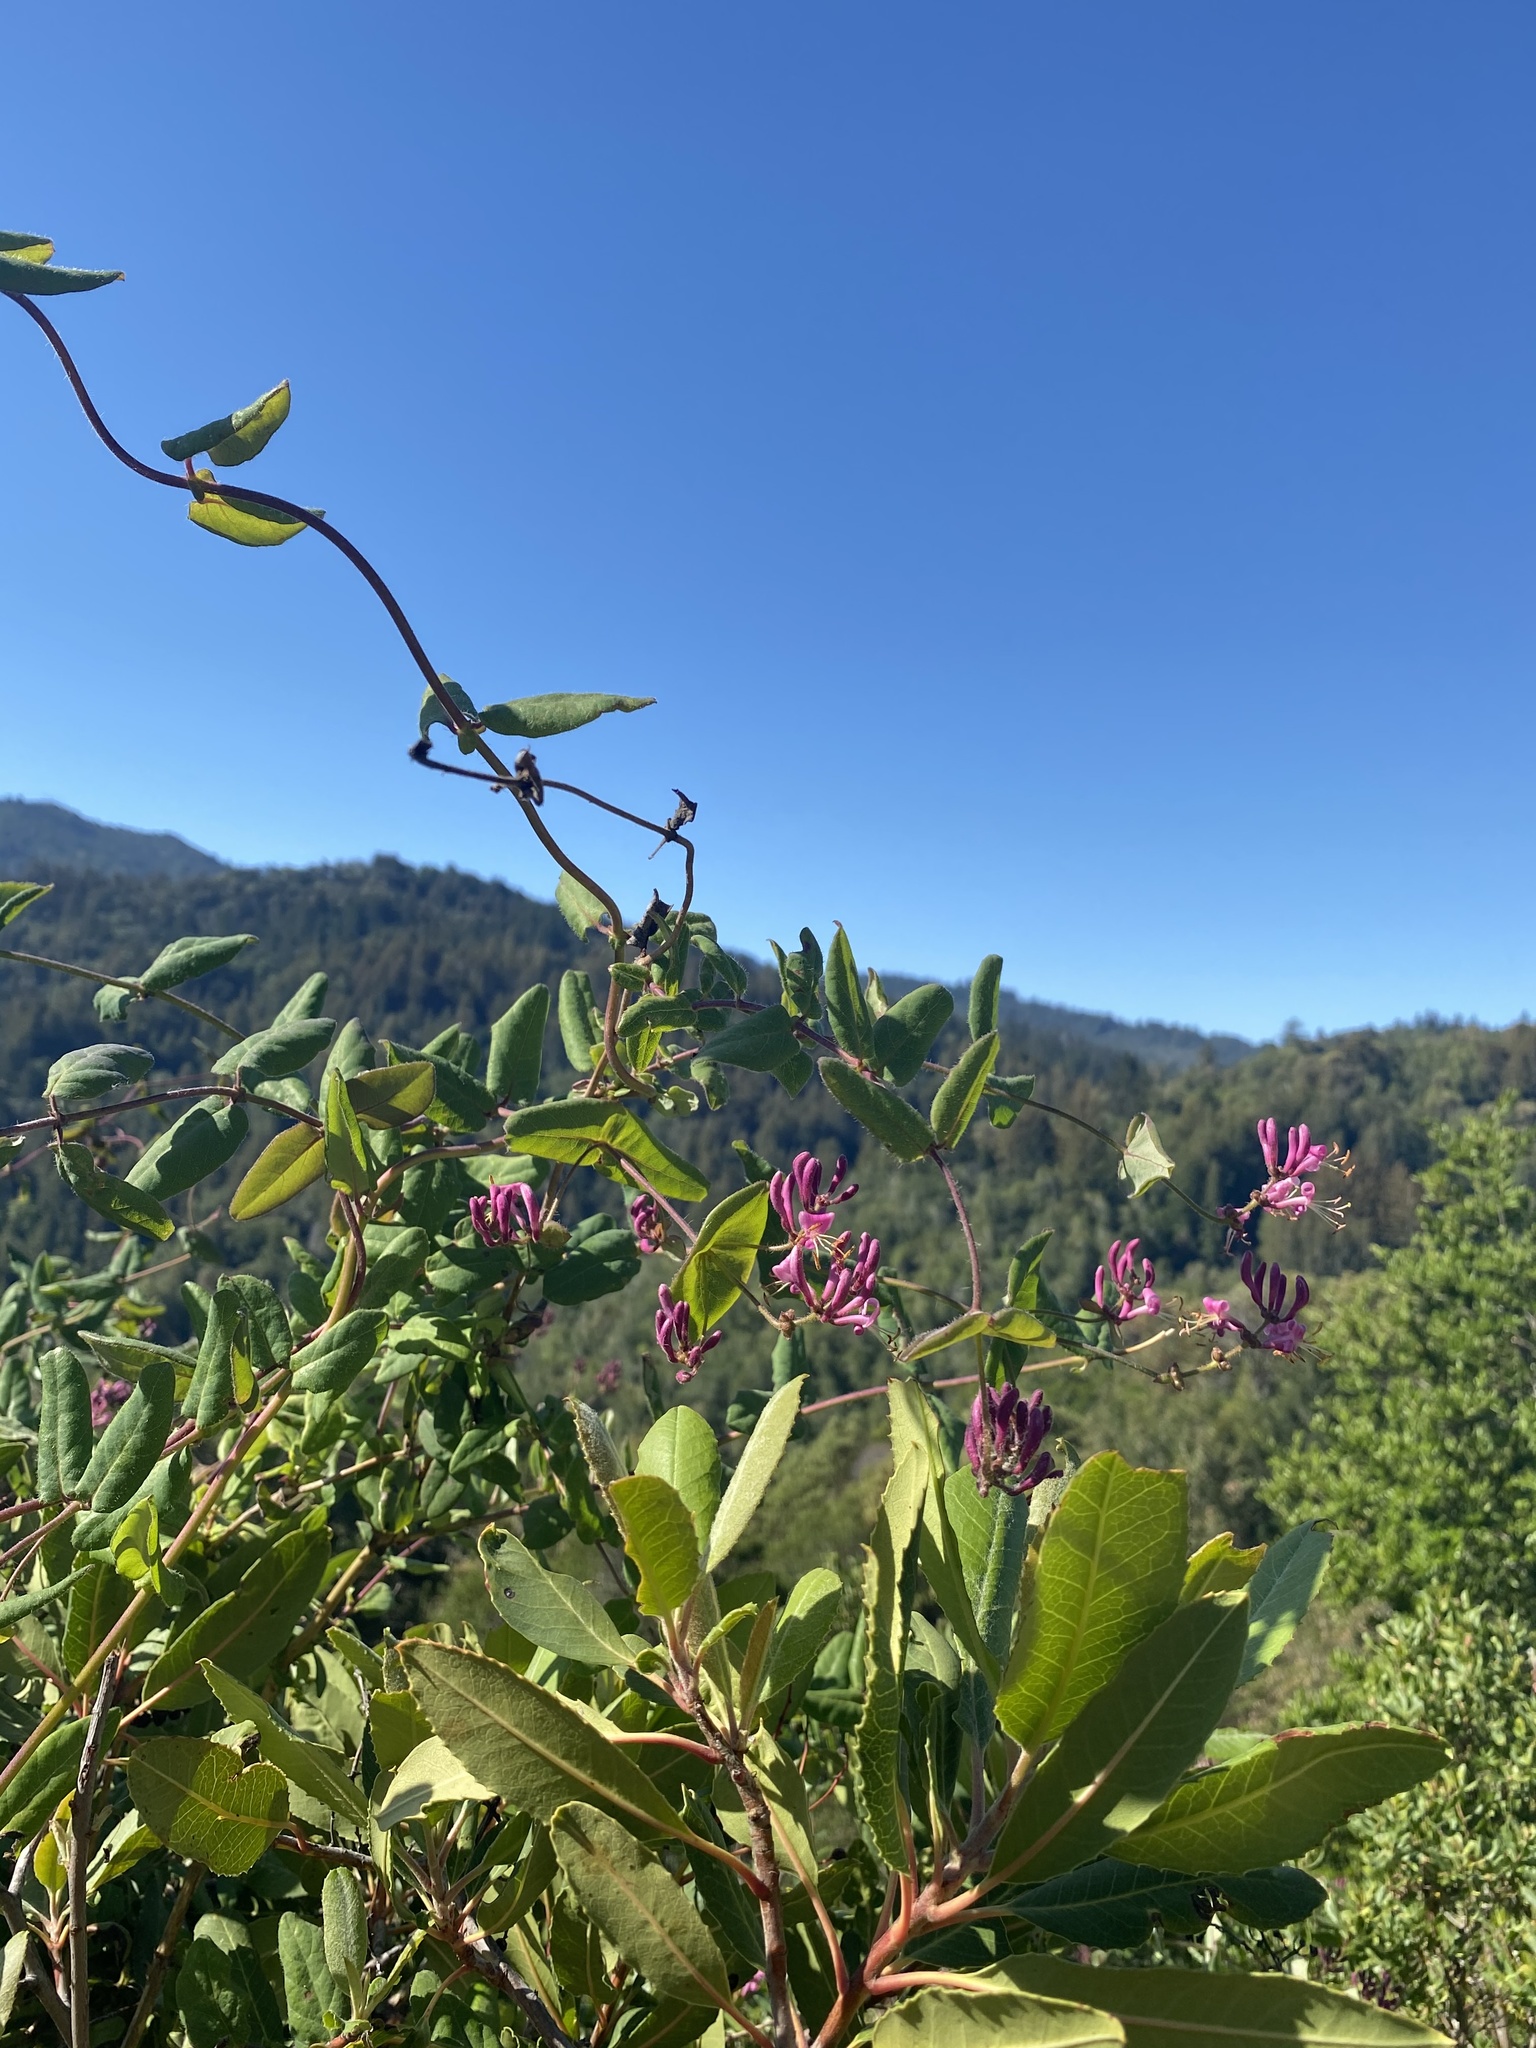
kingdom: Plantae
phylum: Tracheophyta
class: Magnoliopsida
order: Dipsacales
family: Caprifoliaceae
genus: Lonicera
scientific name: Lonicera hispidula
